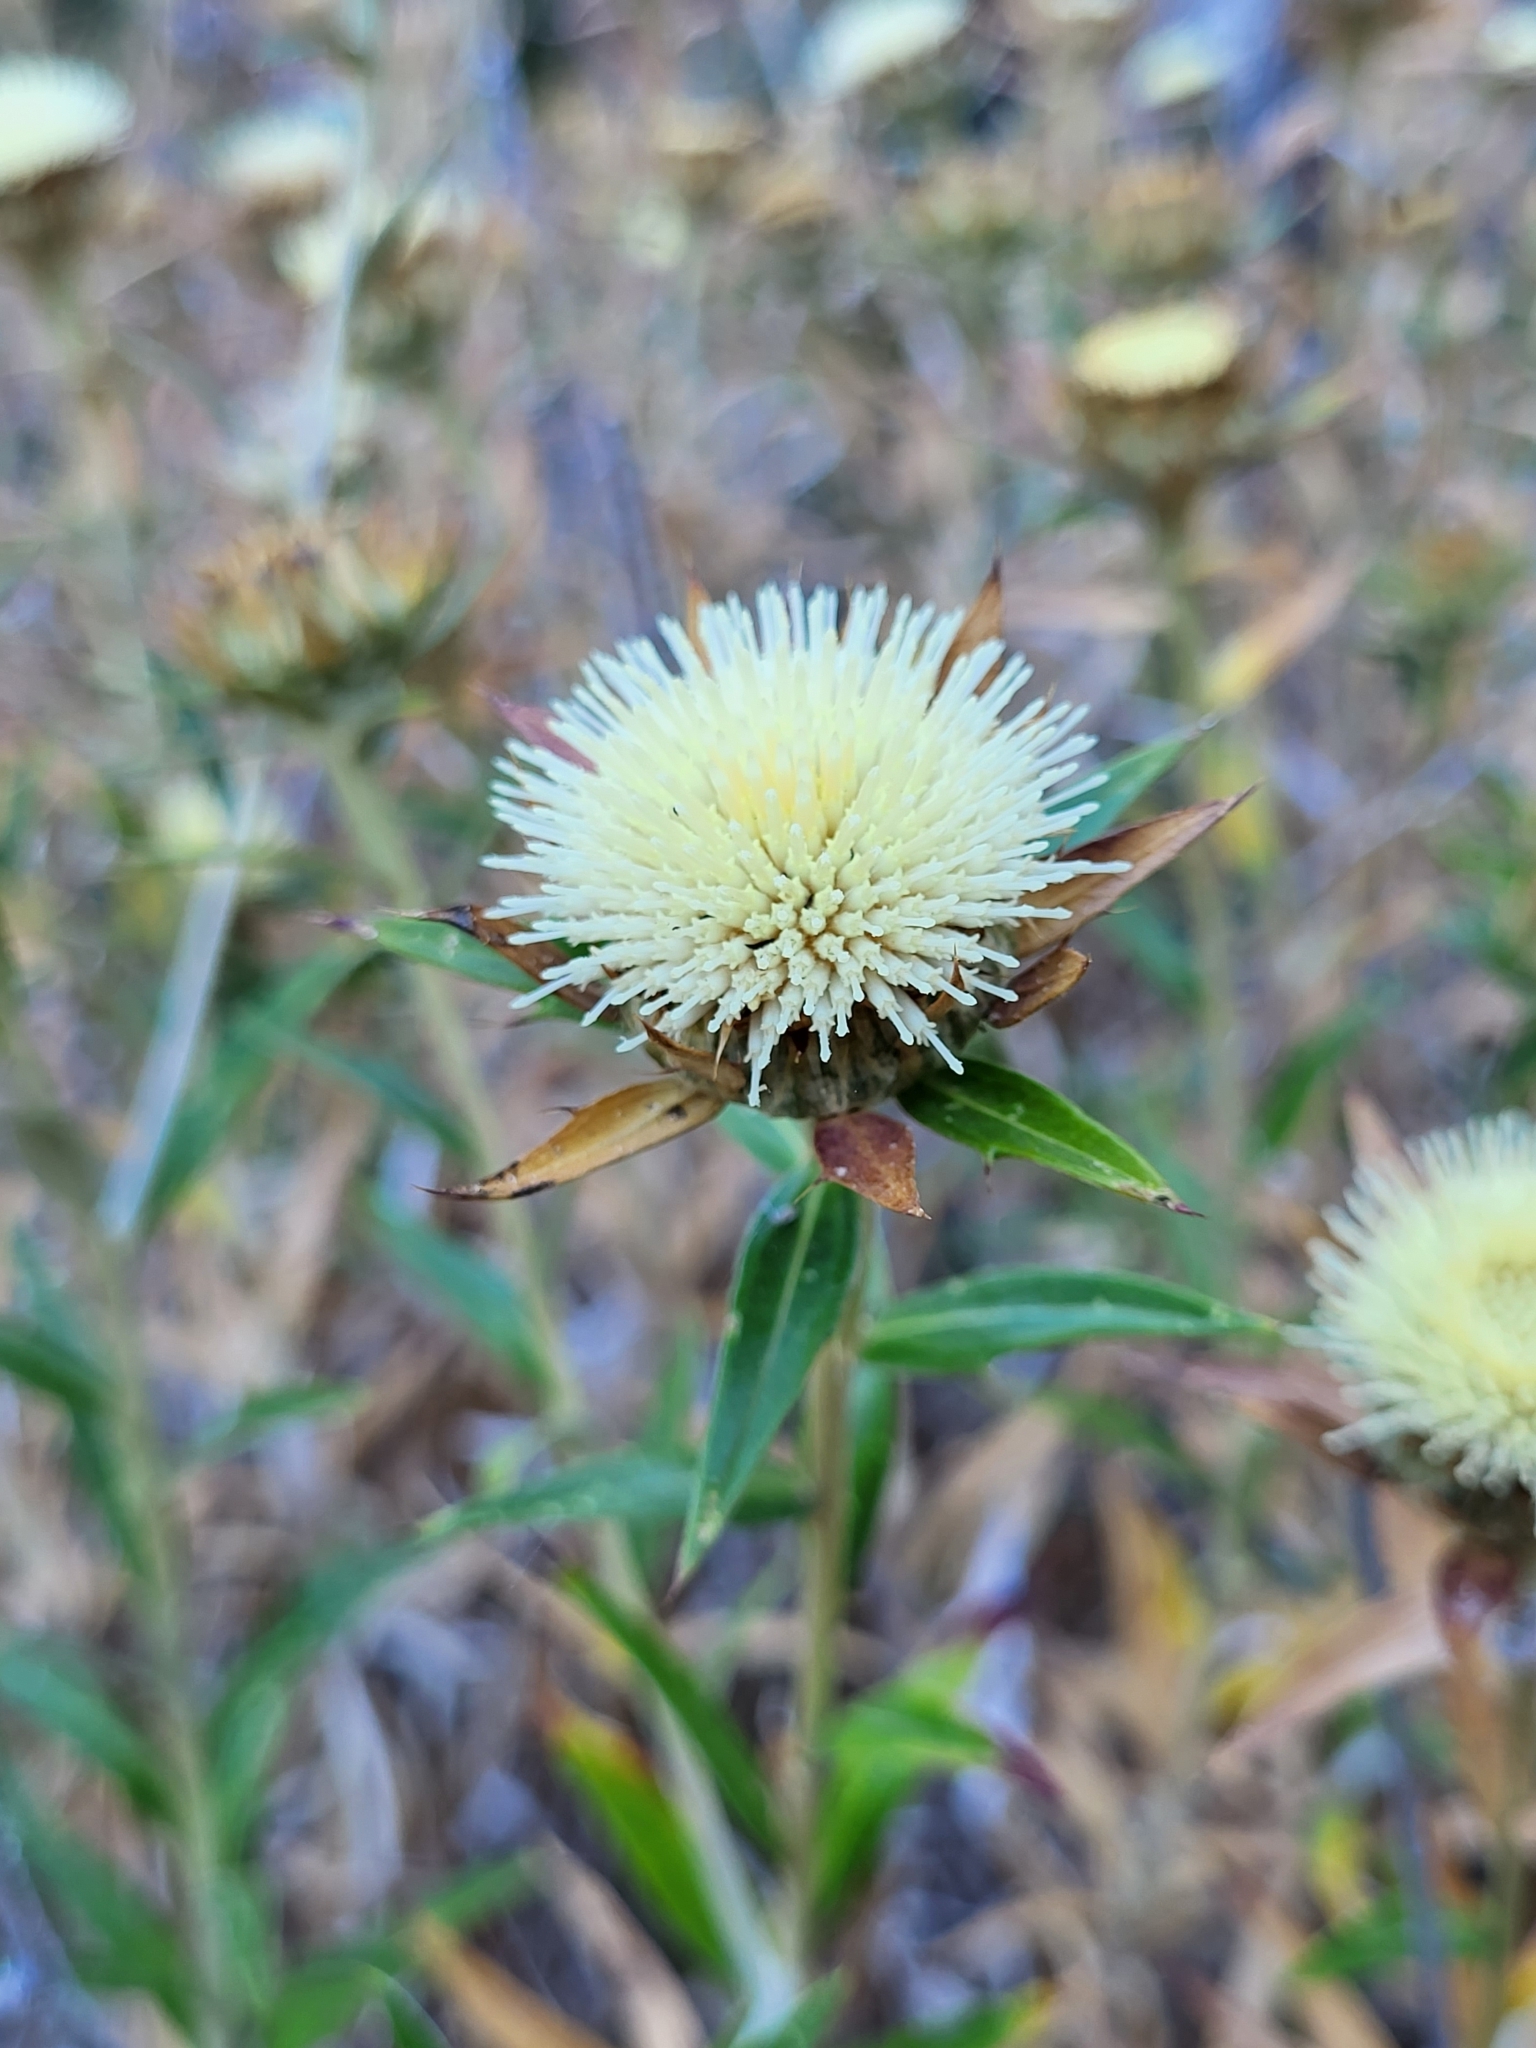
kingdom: Plantae
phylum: Tracheophyta
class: Magnoliopsida
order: Asterales
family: Asteraceae
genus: Carlina
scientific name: Carlina salicifolia
